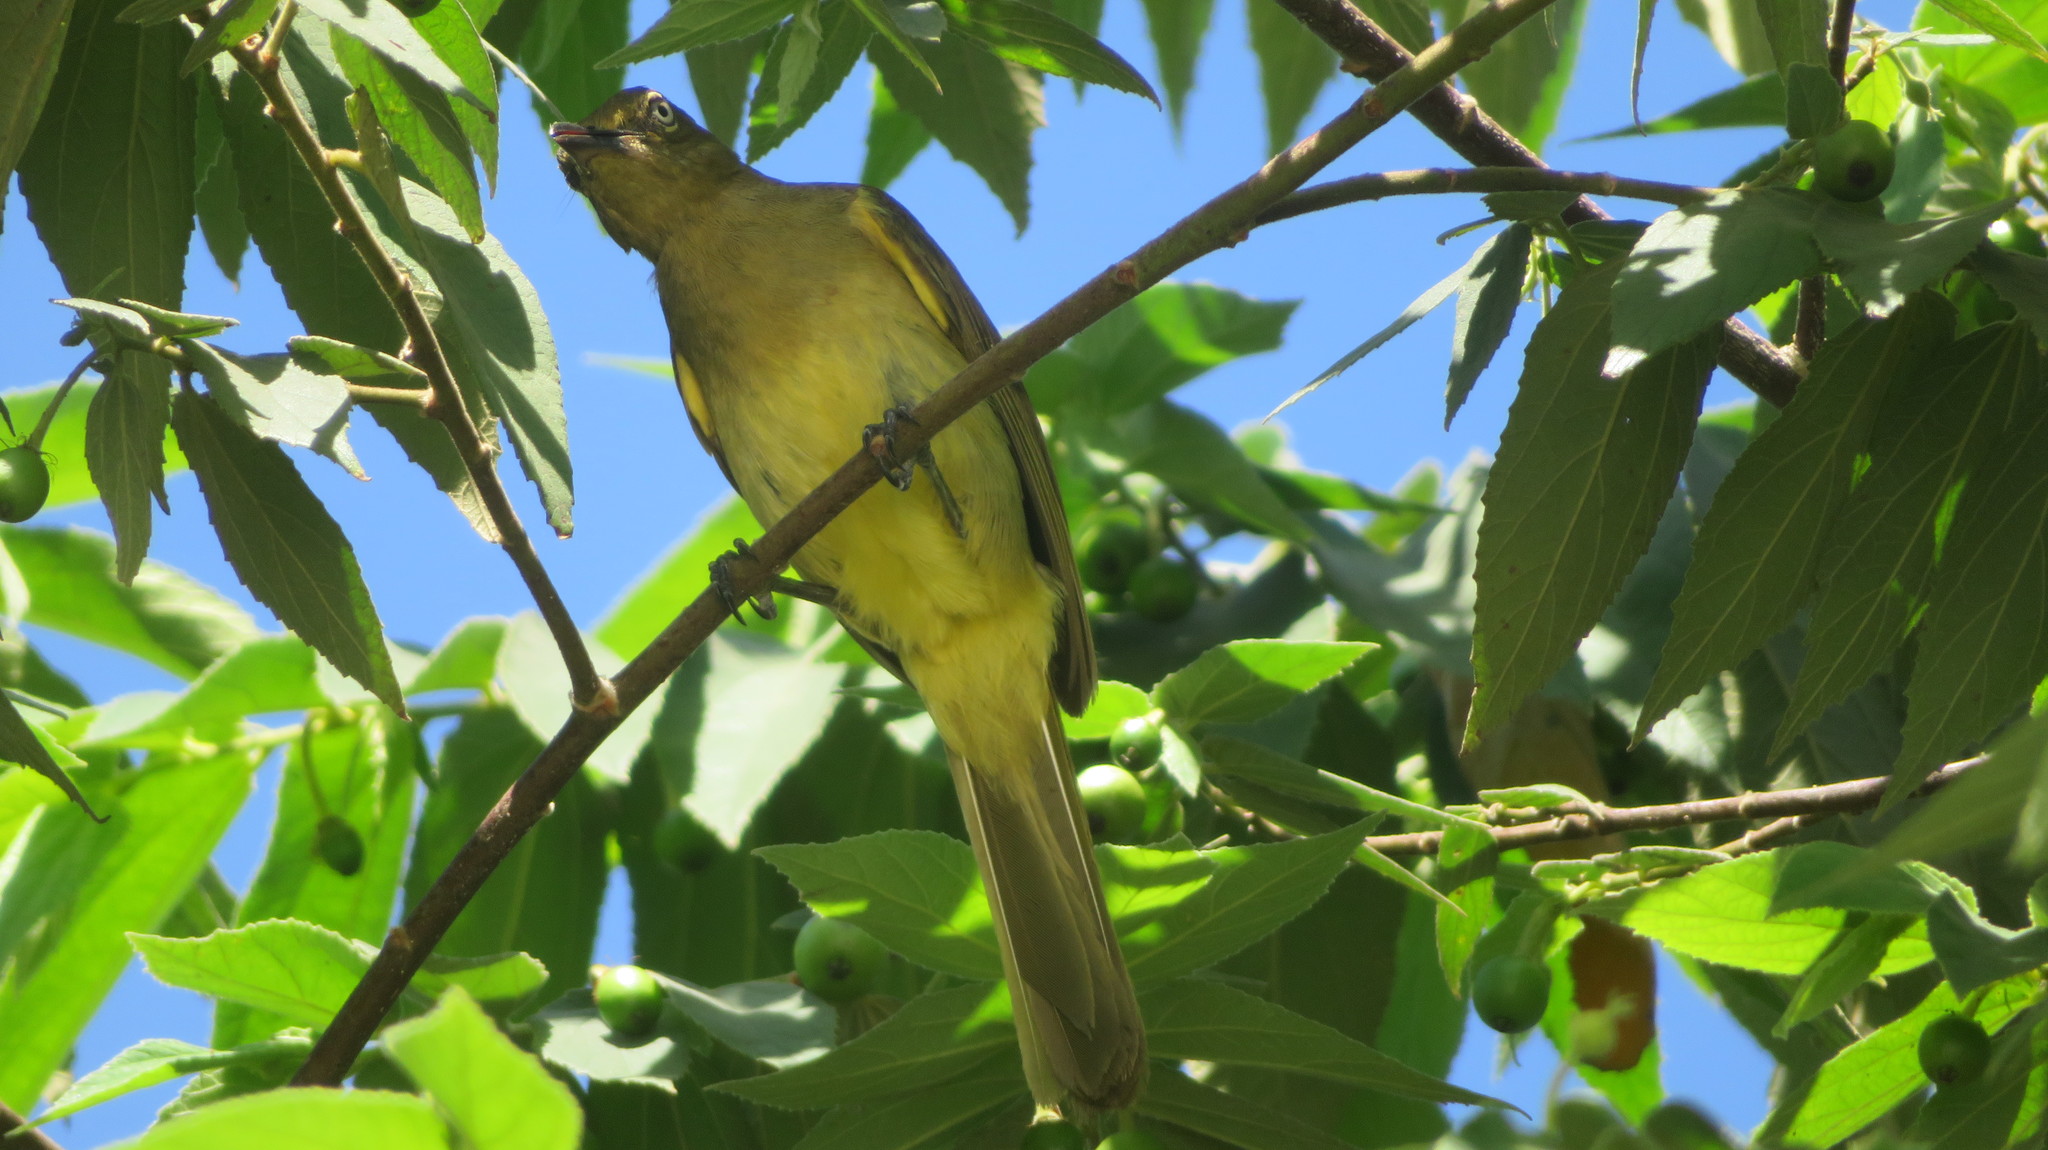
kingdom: Animalia
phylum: Chordata
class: Aves
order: Passeriformes
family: Pycnonotidae
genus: Andropadus
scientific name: Andropadus importunus
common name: Sombre greenbul
